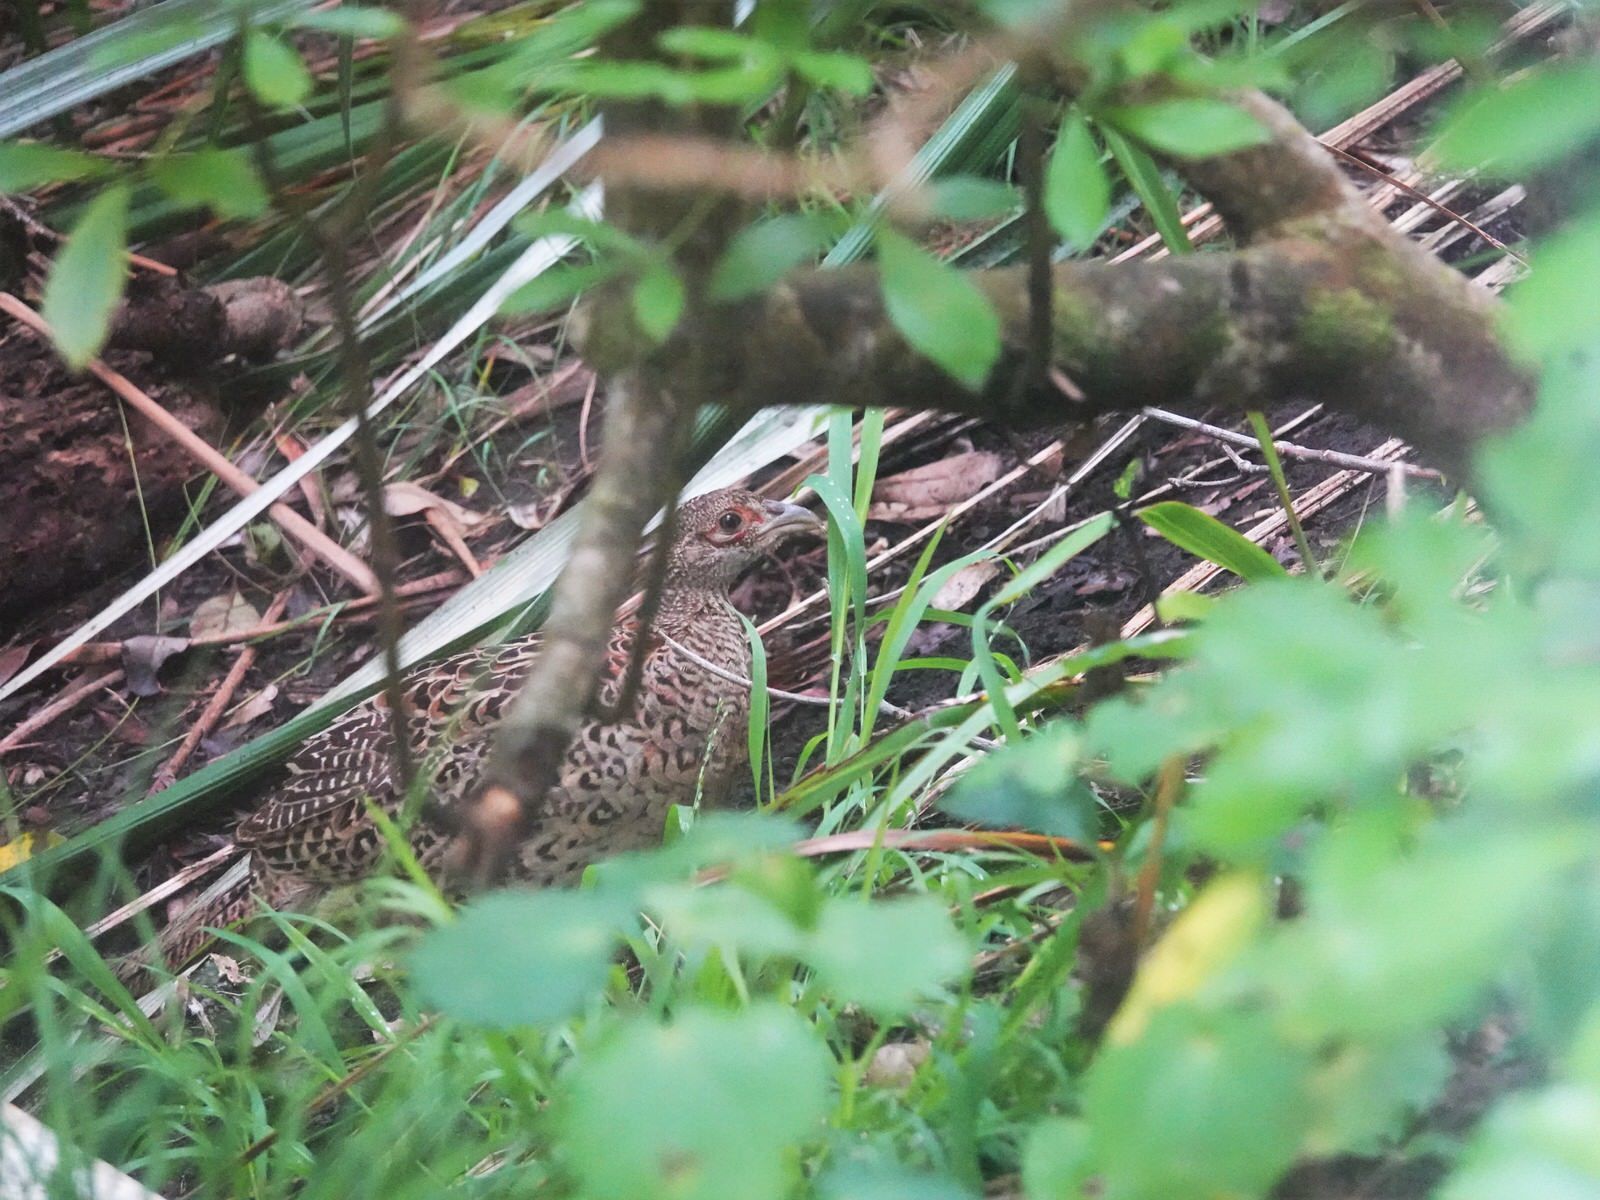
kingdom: Animalia
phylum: Chordata
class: Aves
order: Galliformes
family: Phasianidae
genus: Phasianus
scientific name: Phasianus colchicus
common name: Common pheasant
